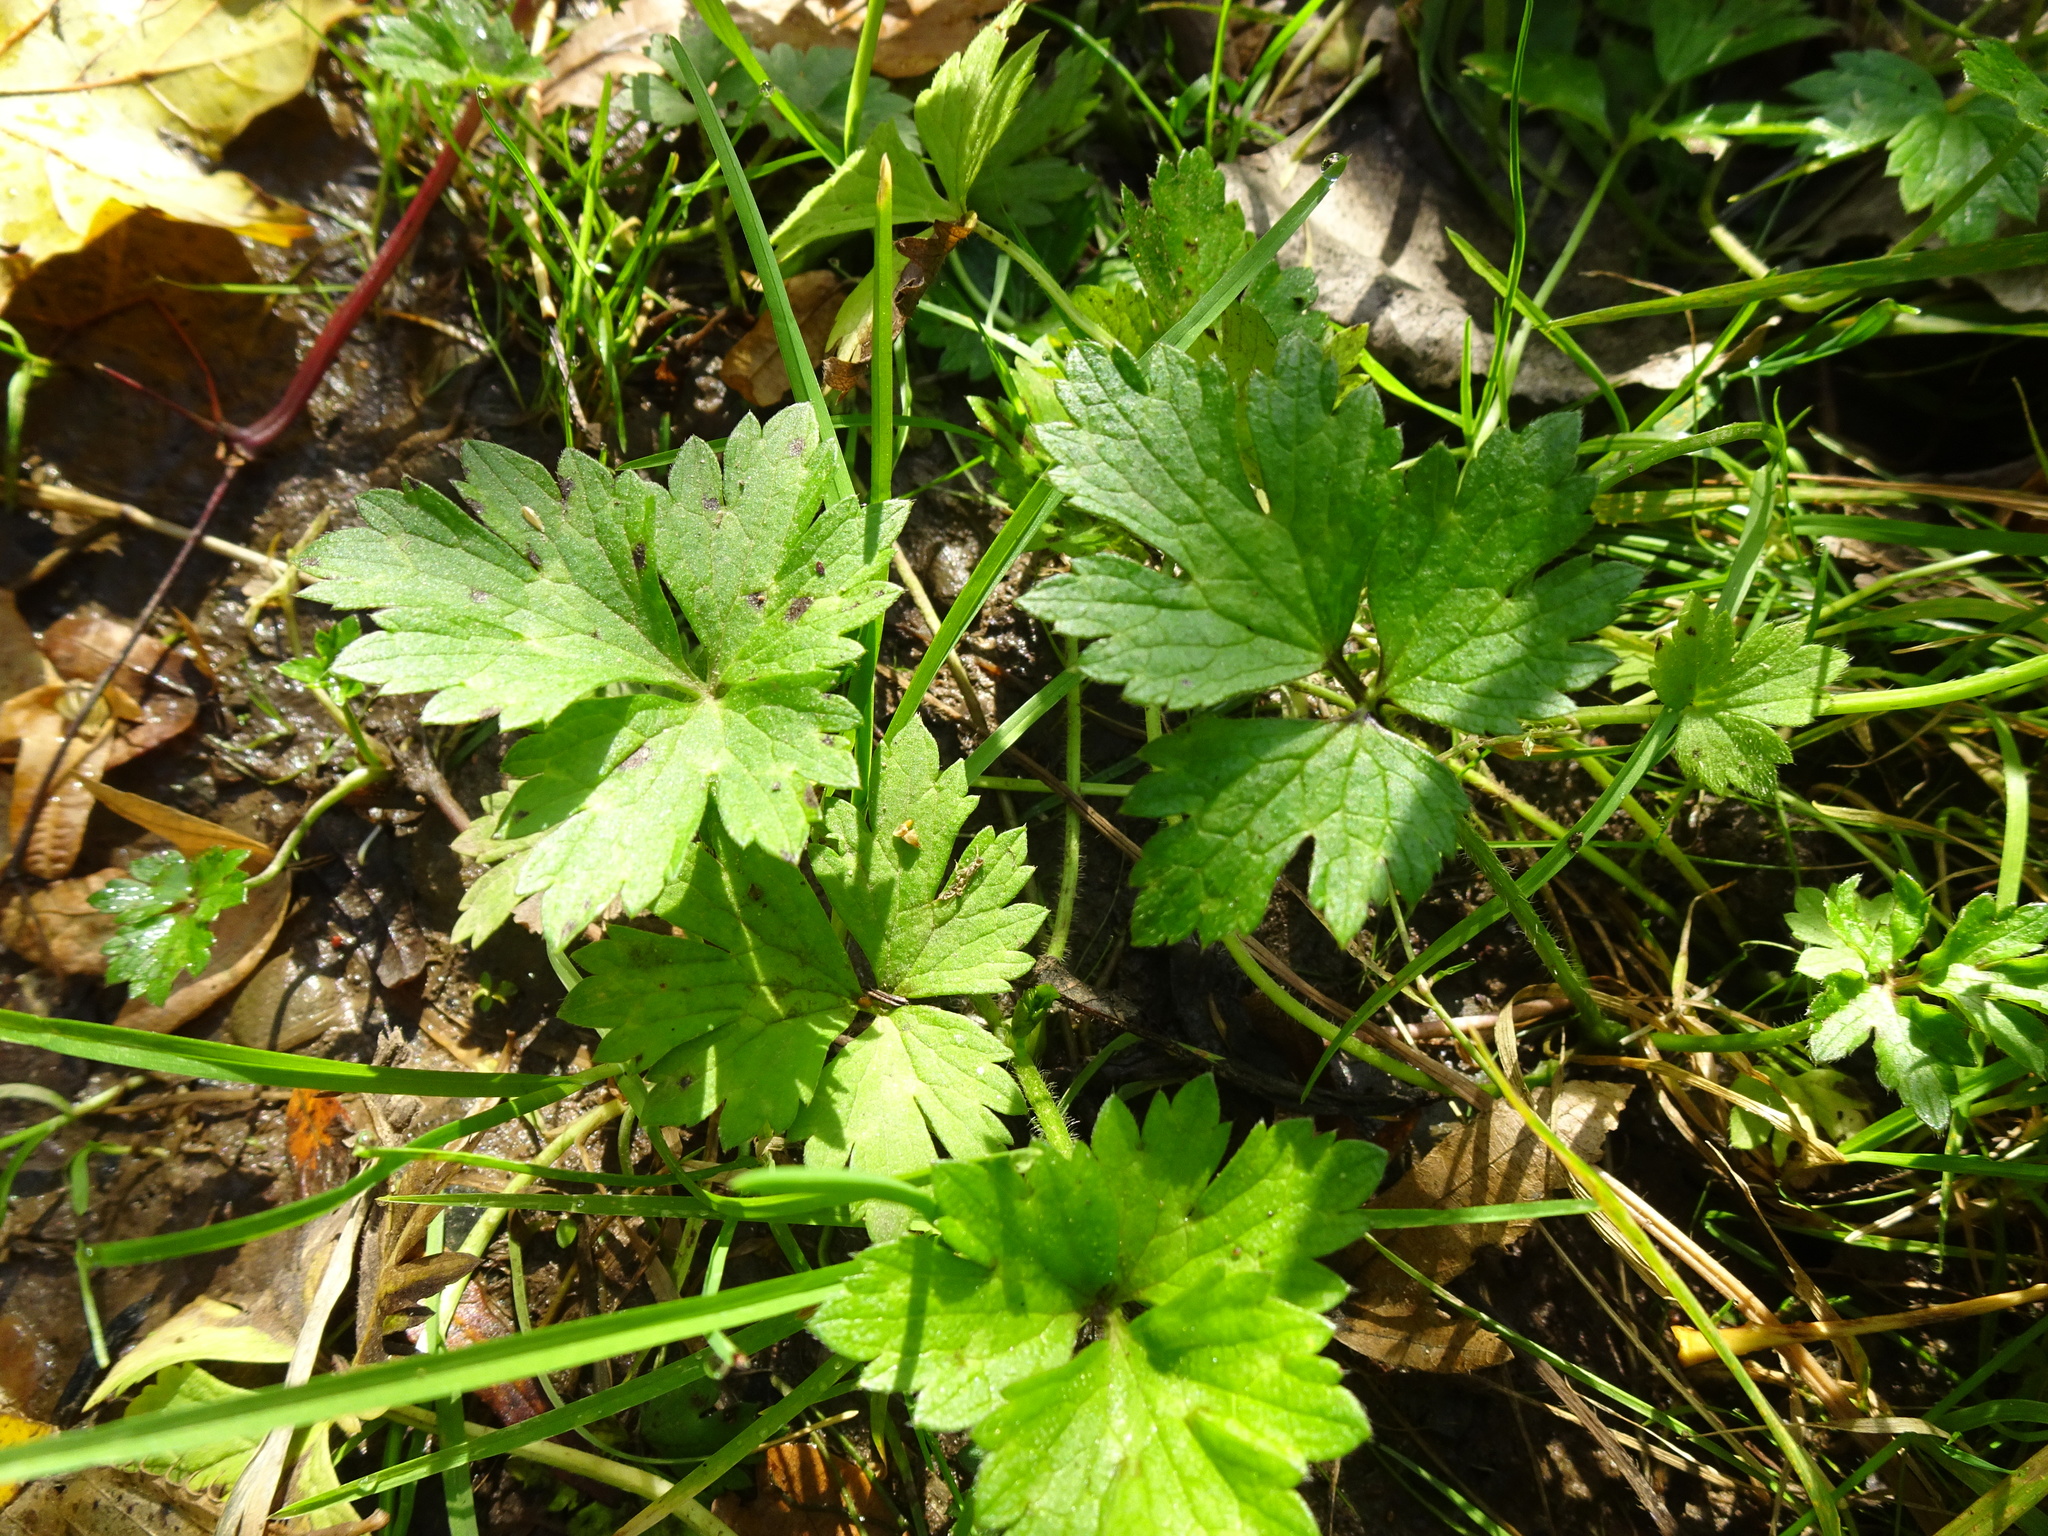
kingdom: Plantae
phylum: Tracheophyta
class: Magnoliopsida
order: Ranunculales
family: Ranunculaceae
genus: Ranunculus
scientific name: Ranunculus repens
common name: Creeping buttercup
